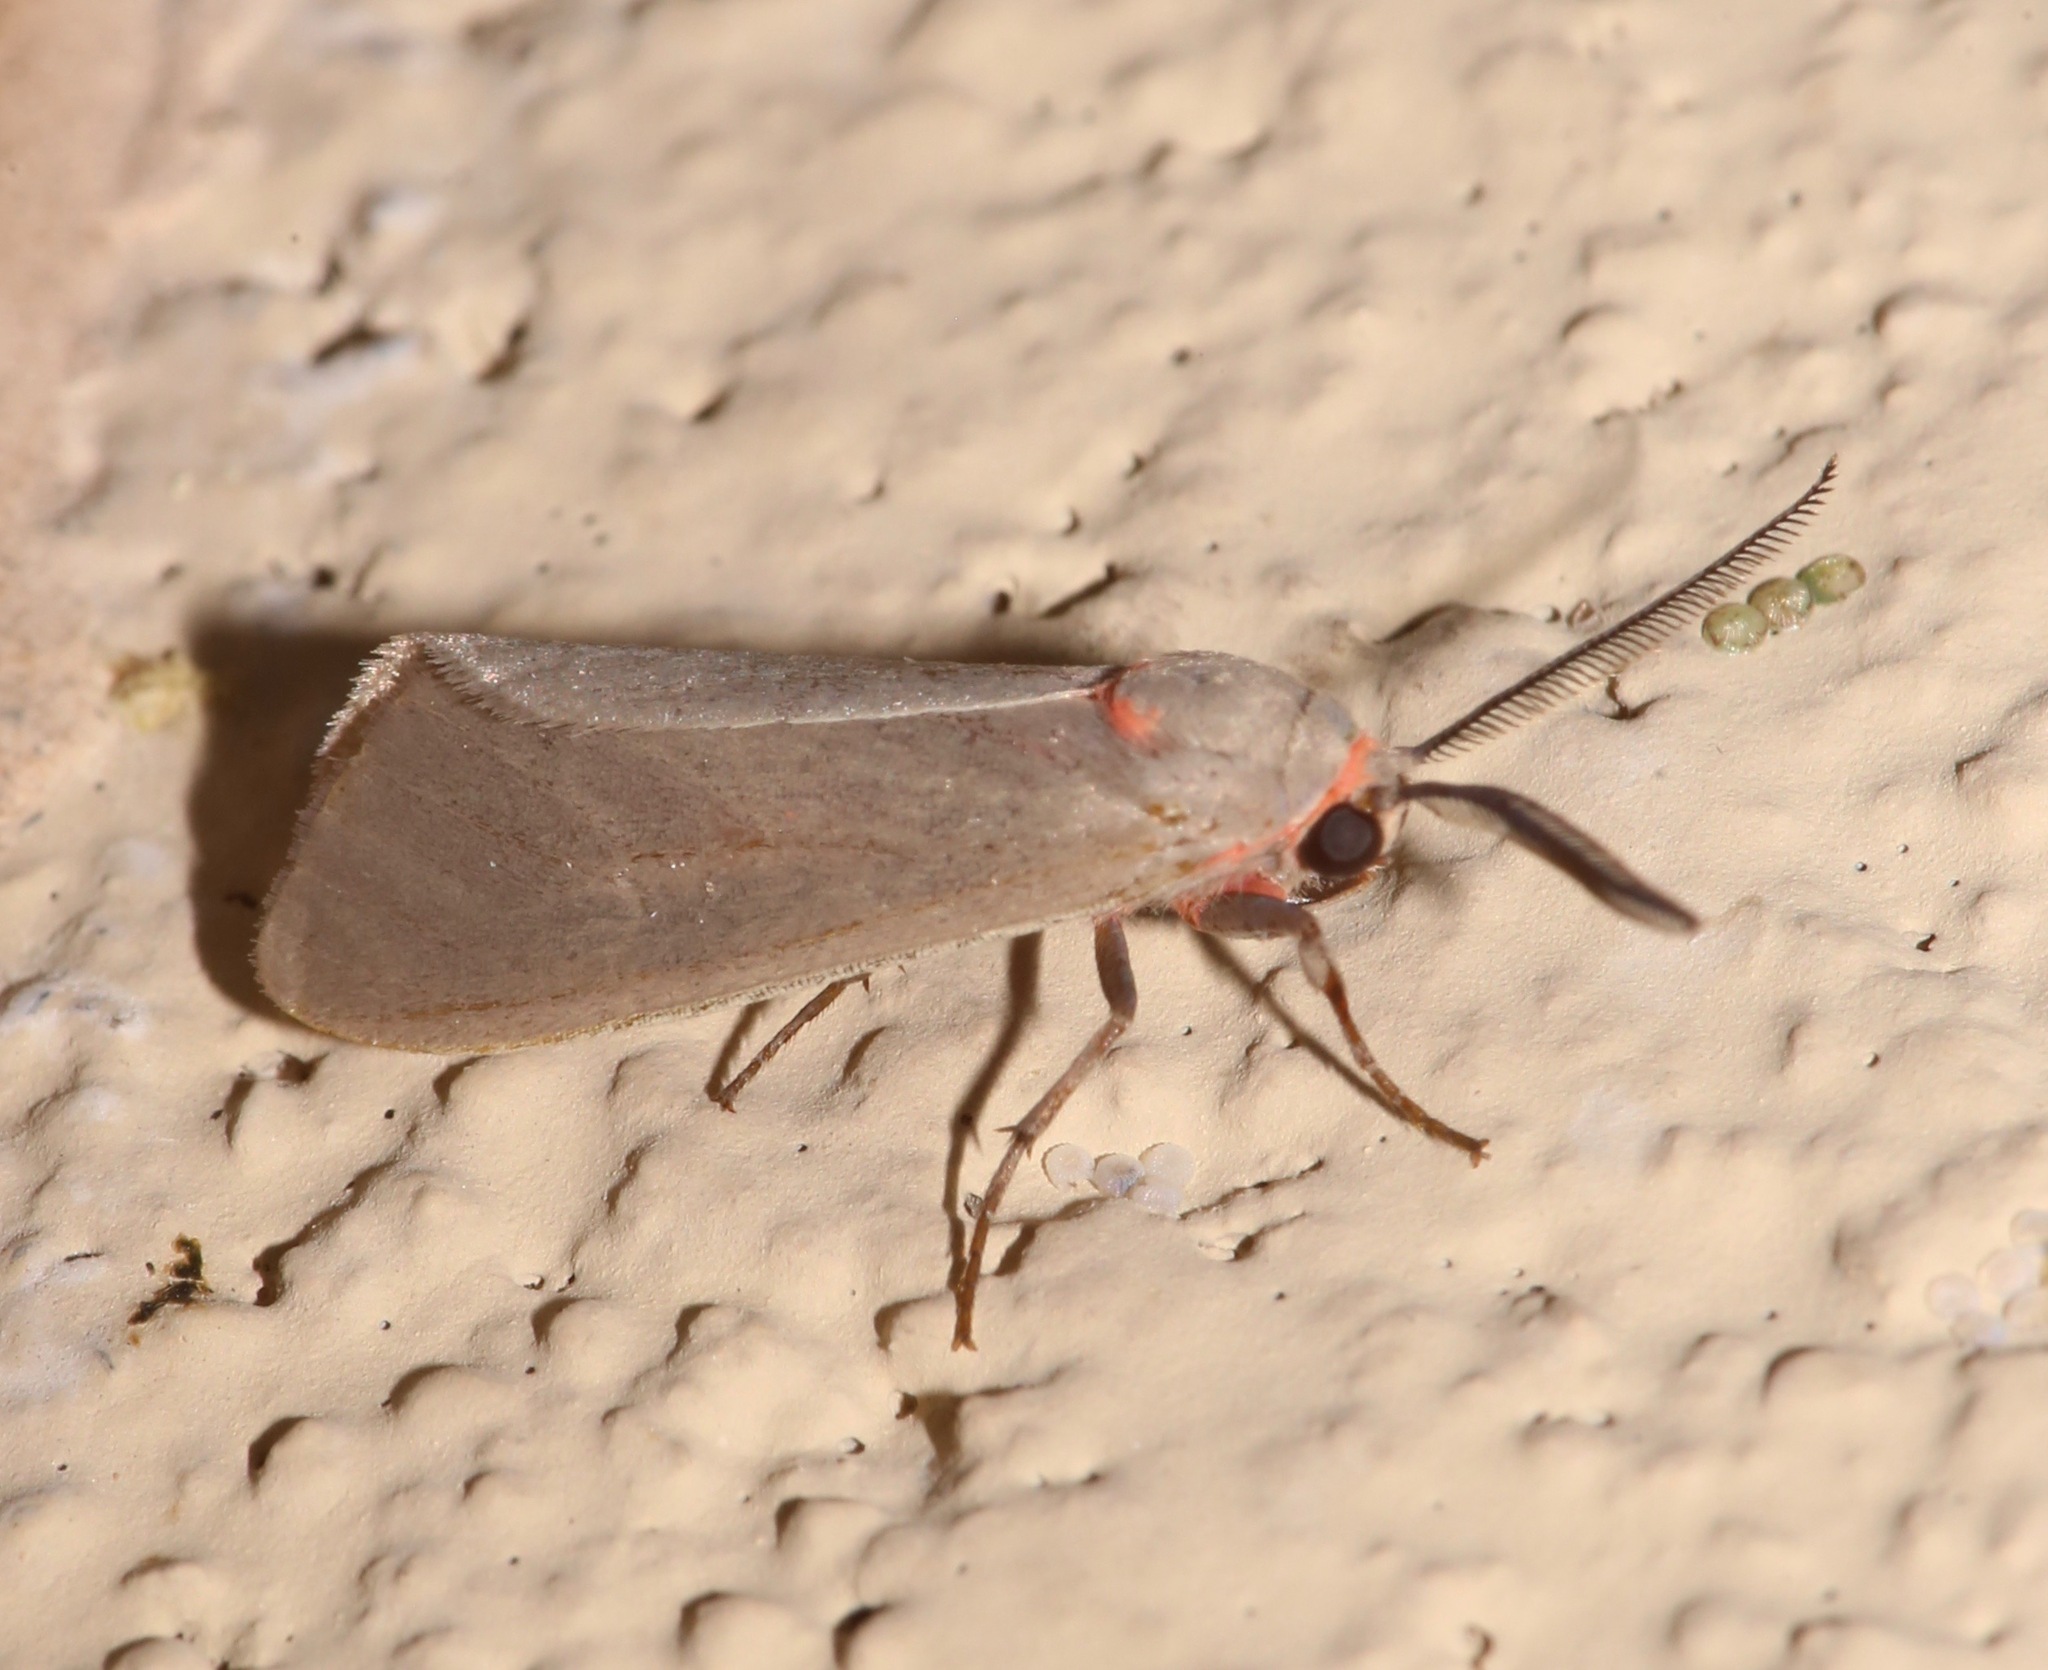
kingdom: Animalia
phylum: Arthropoda
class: Insecta
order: Lepidoptera
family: Erebidae
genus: Pygarctia
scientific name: Pygarctia murina
